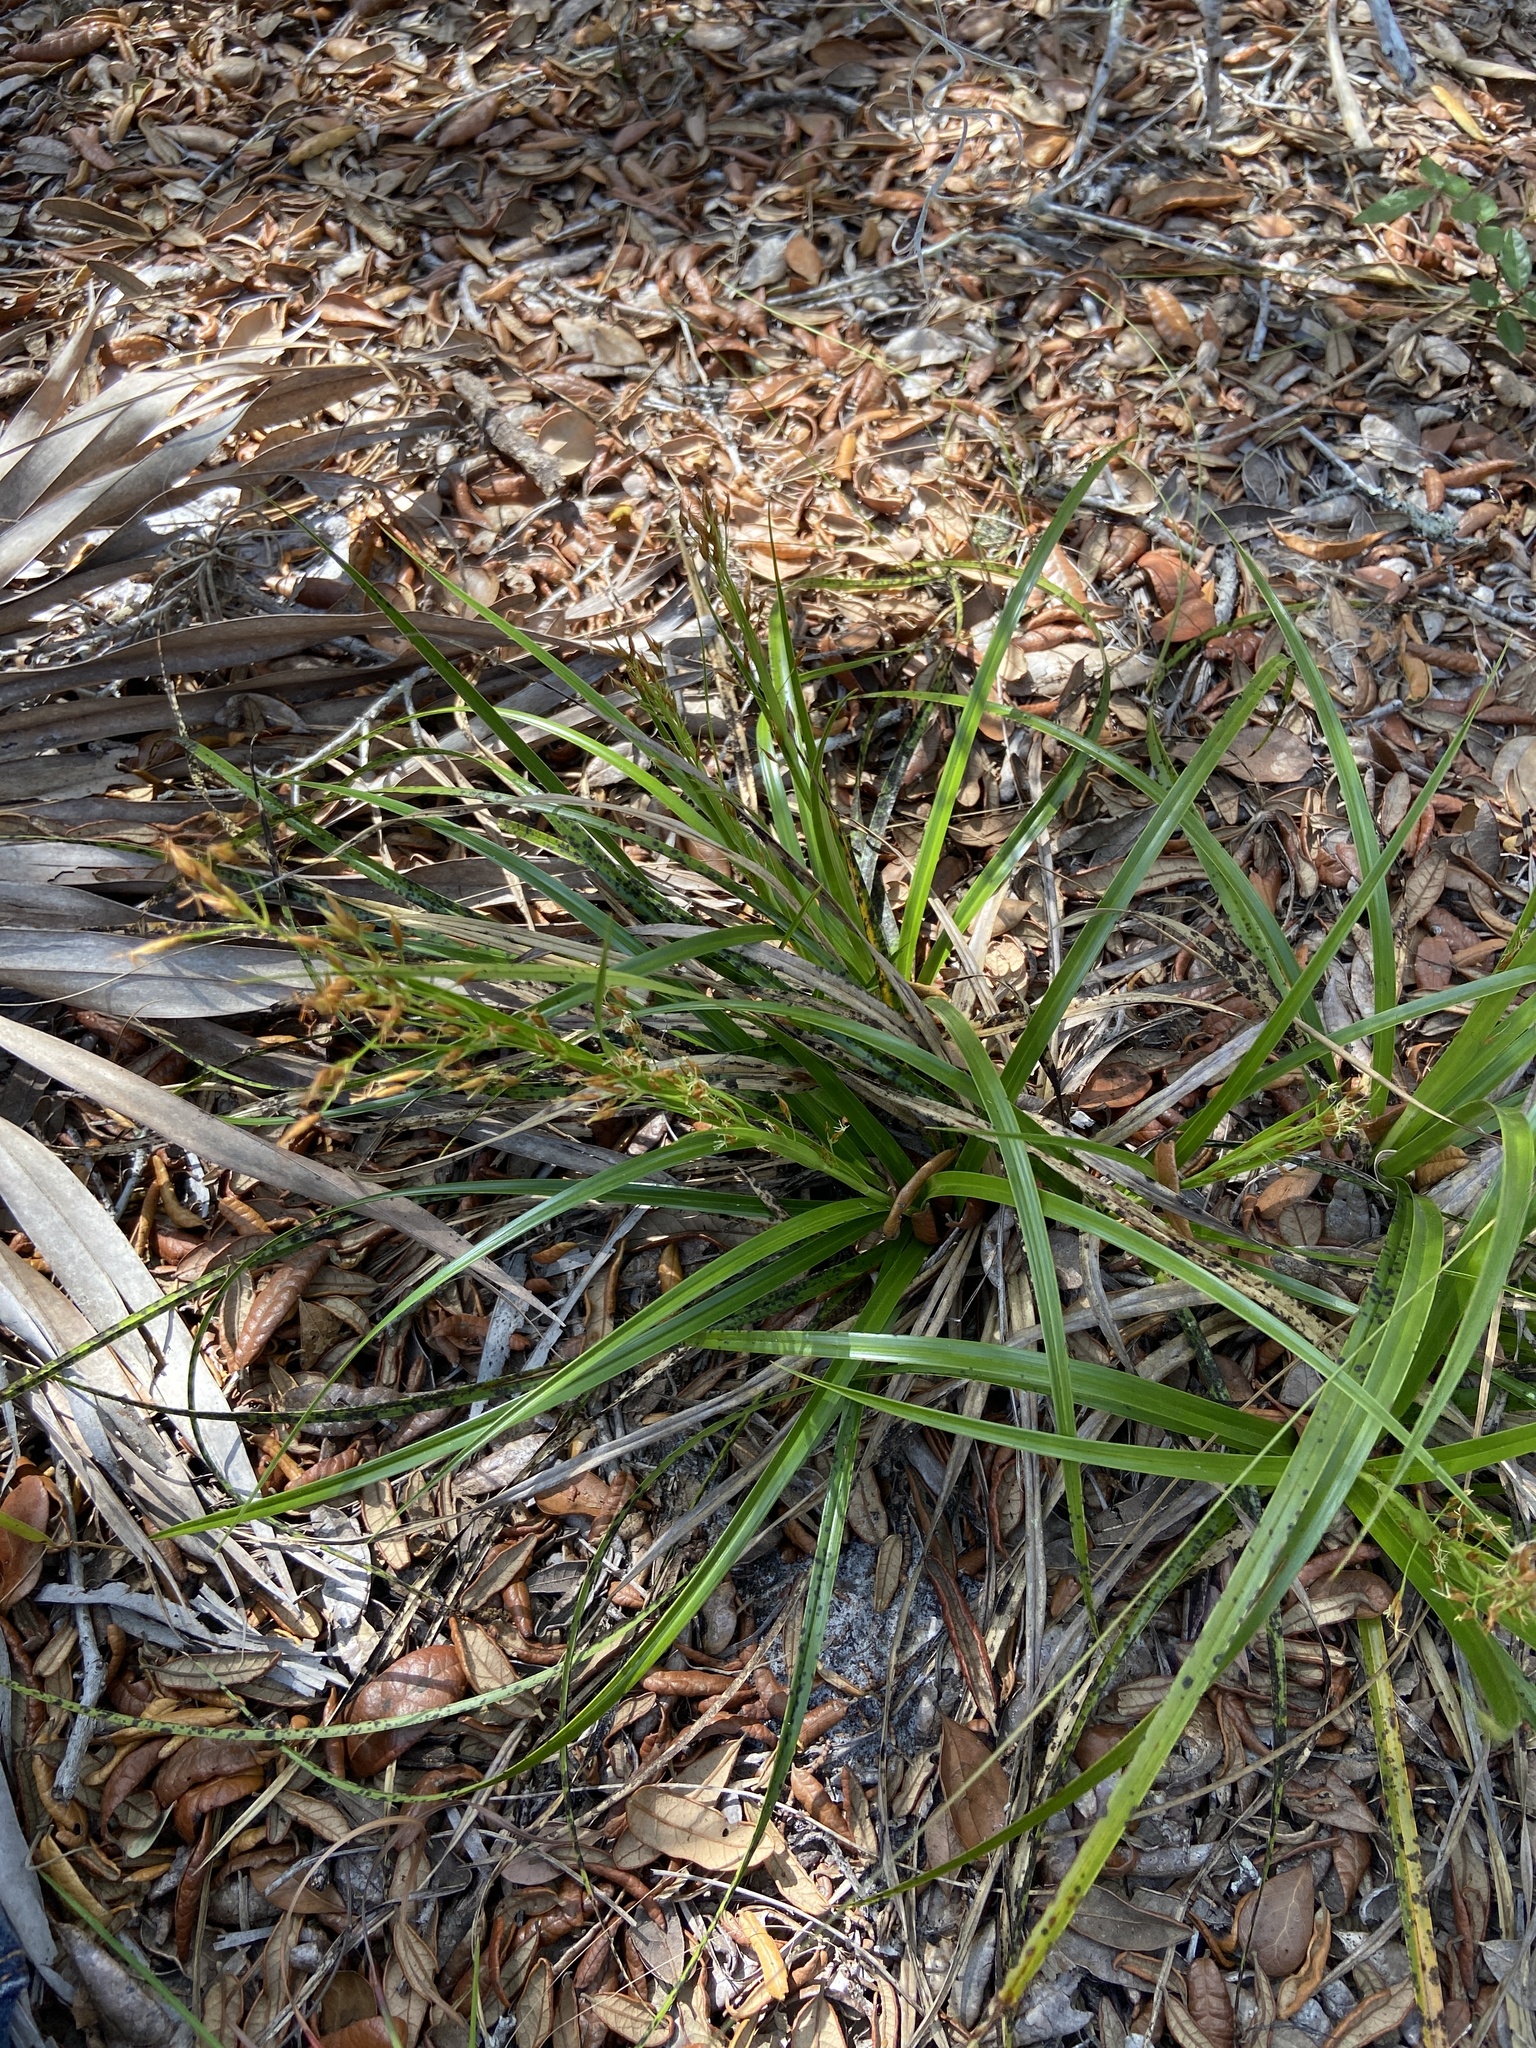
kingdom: Plantae
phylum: Tracheophyta
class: Liliopsida
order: Poales
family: Cyperaceae
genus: Rhynchospora
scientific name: Rhynchospora megalocarpa
